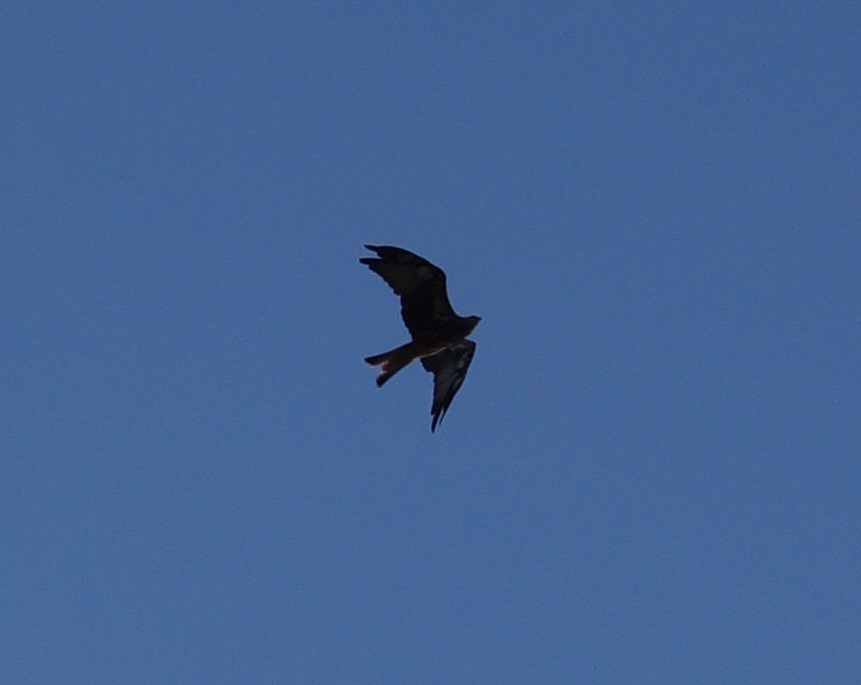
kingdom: Animalia
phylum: Chordata
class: Aves
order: Accipitriformes
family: Accipitridae
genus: Milvus
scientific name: Milvus milvus
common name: Red kite
